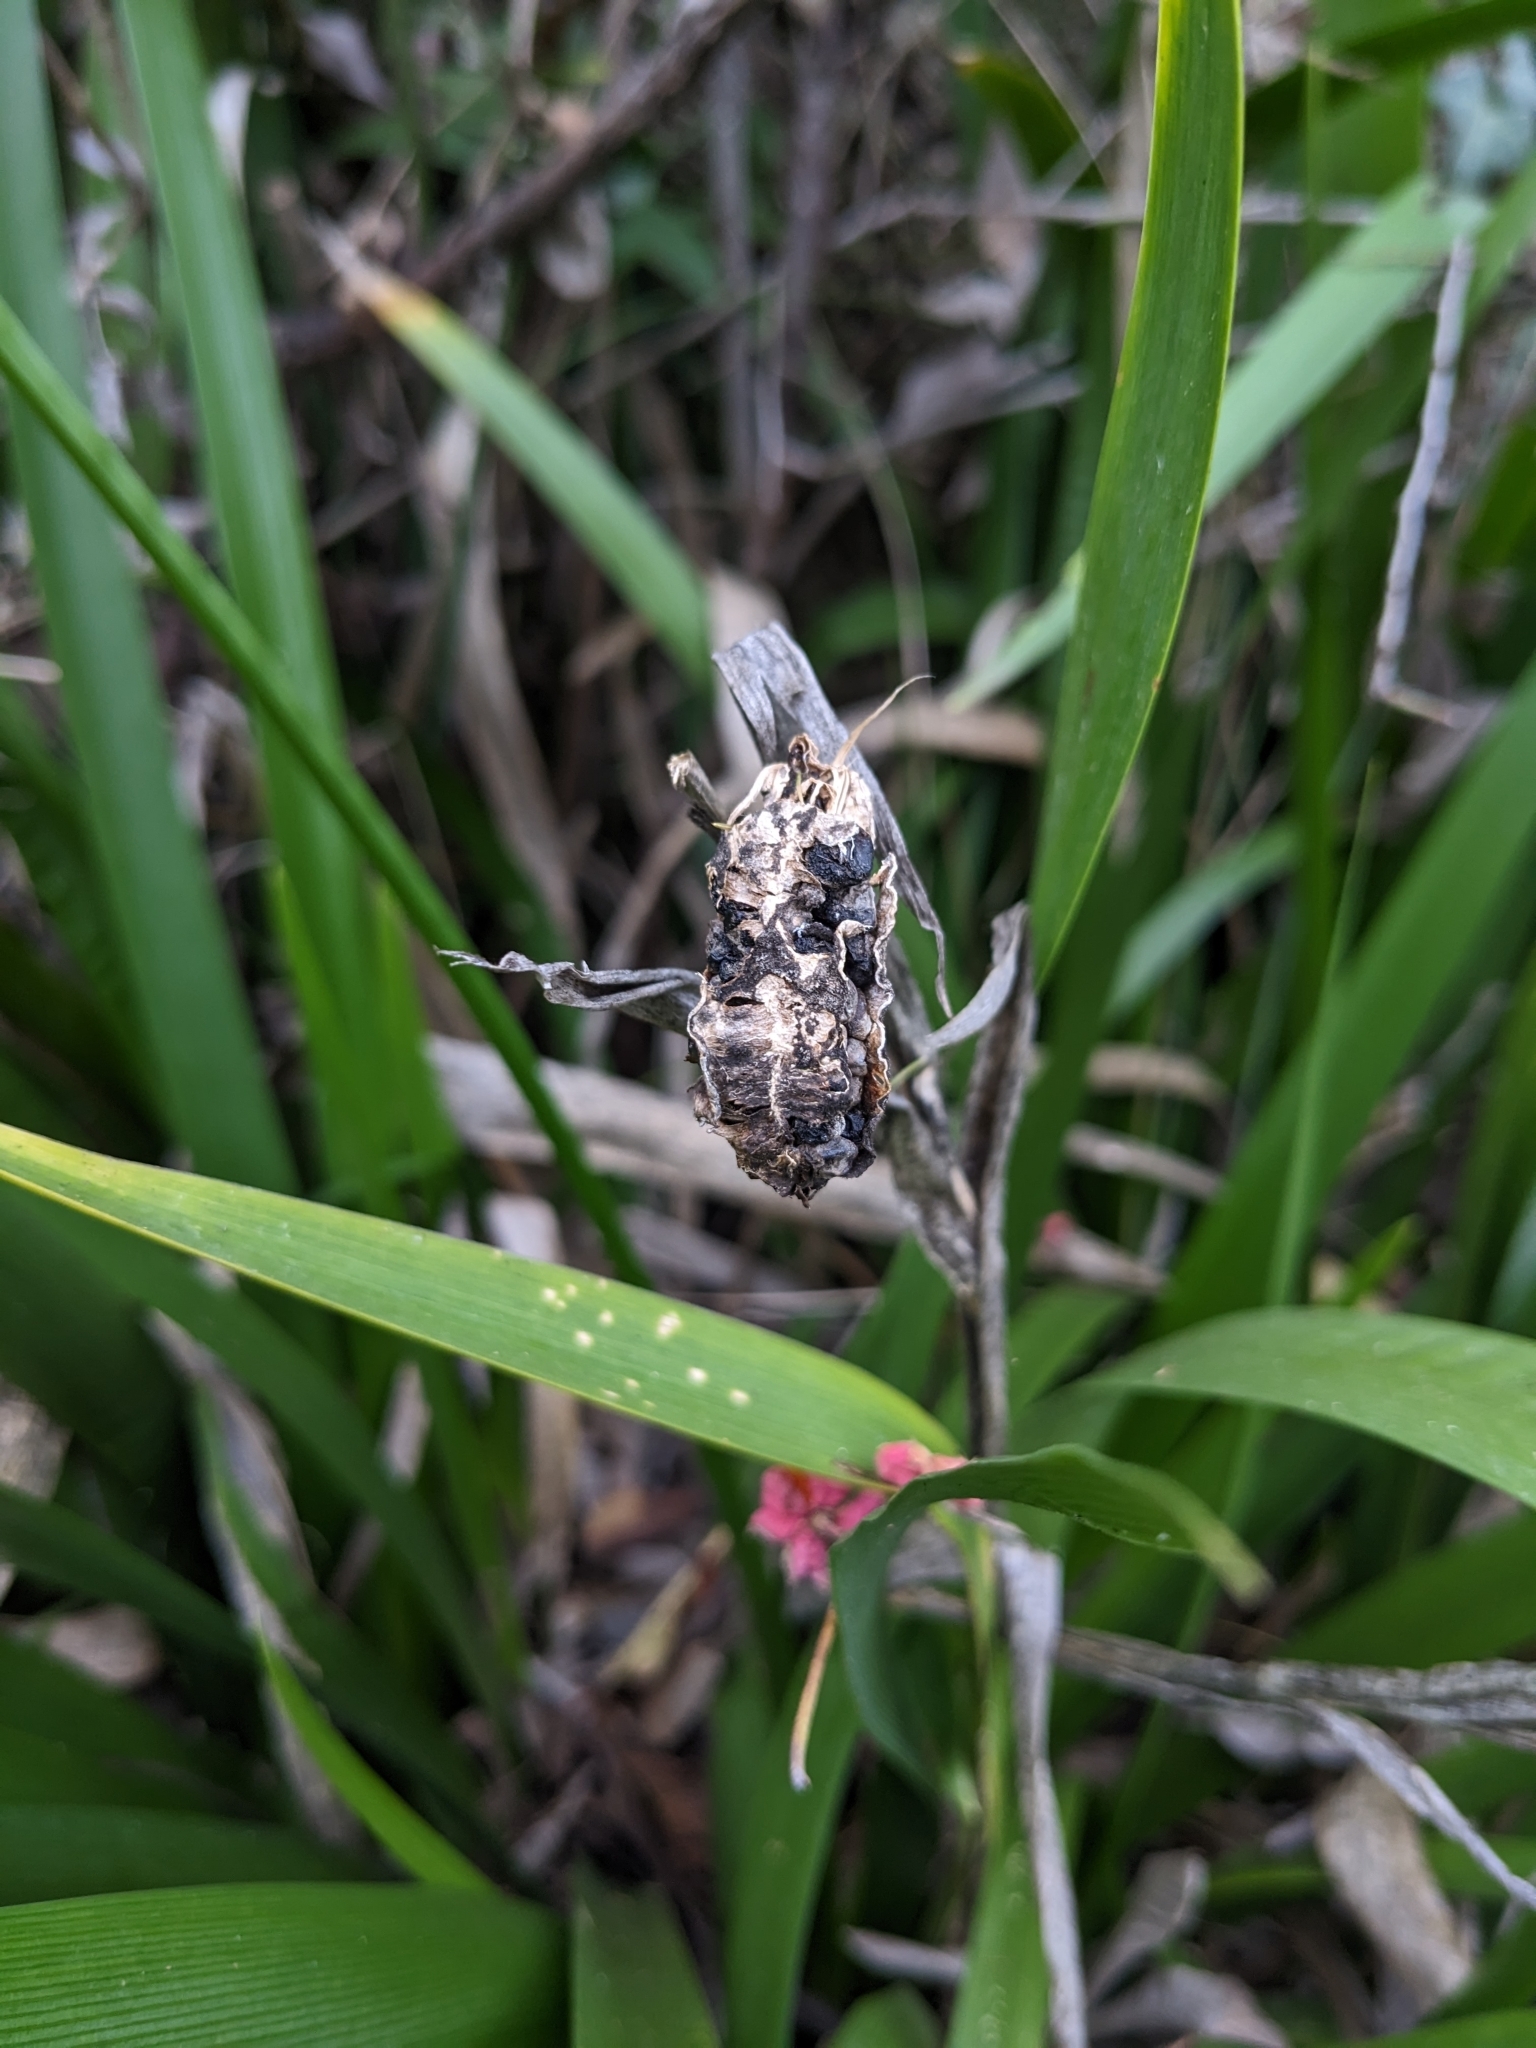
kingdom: Plantae
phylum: Tracheophyta
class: Liliopsida
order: Asparagales
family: Iridaceae
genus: Iris
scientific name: Iris foetidissima
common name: Stinking iris
